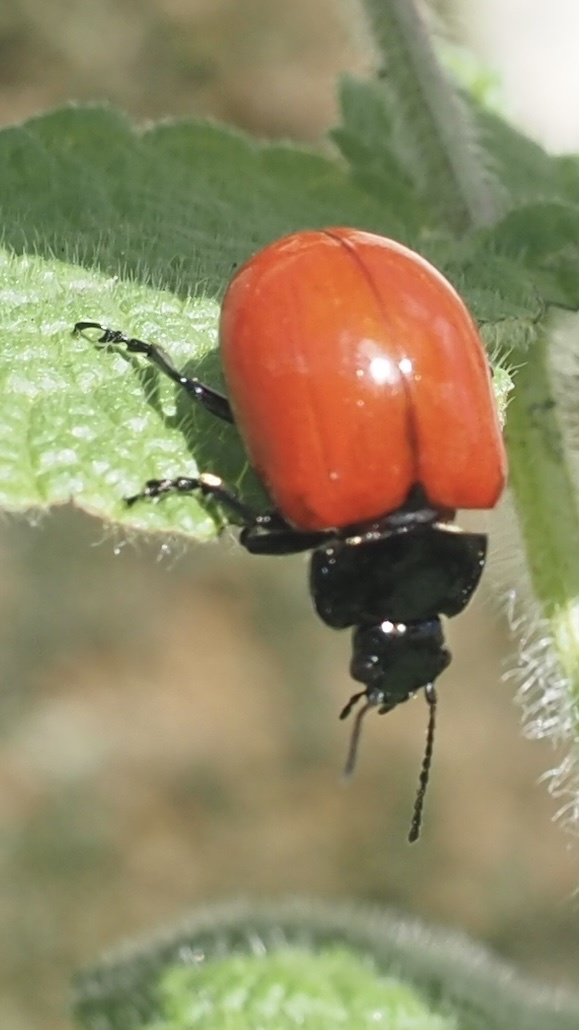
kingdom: Animalia
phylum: Arthropoda
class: Insecta
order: Coleoptera
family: Chrysomelidae
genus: Chrysolina
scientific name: Chrysolina lucida
